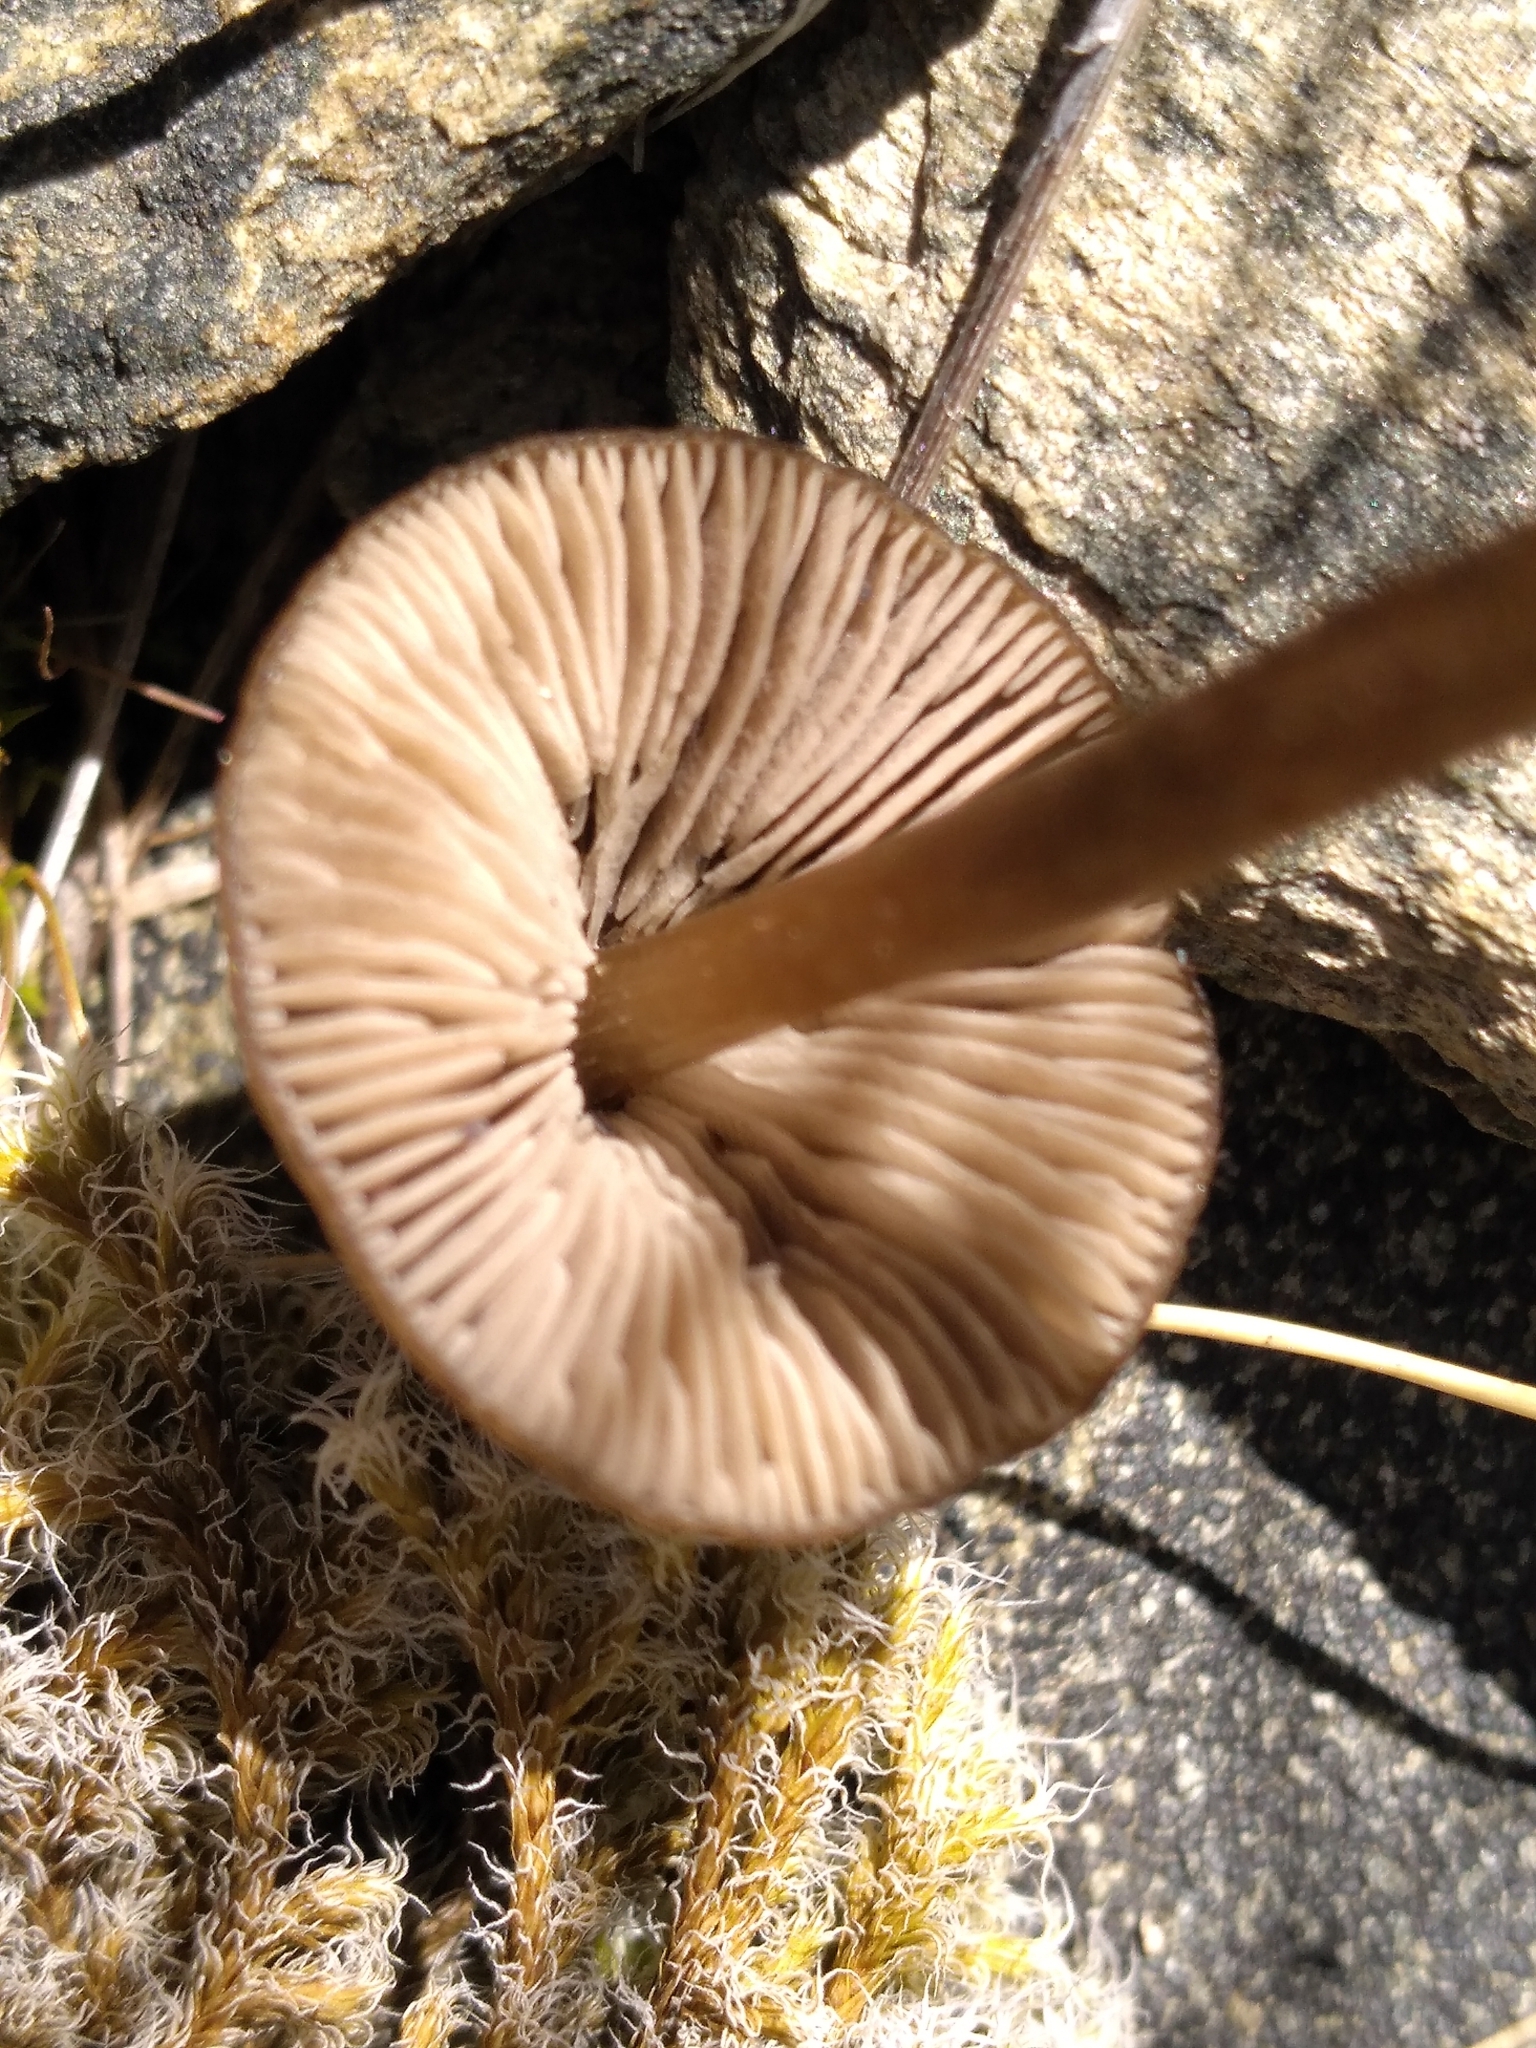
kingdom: Fungi
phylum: Basidiomycota
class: Agaricomycetes
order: Agaricales
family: Entolomataceae
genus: Entoloma
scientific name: Entoloma perzonatum
